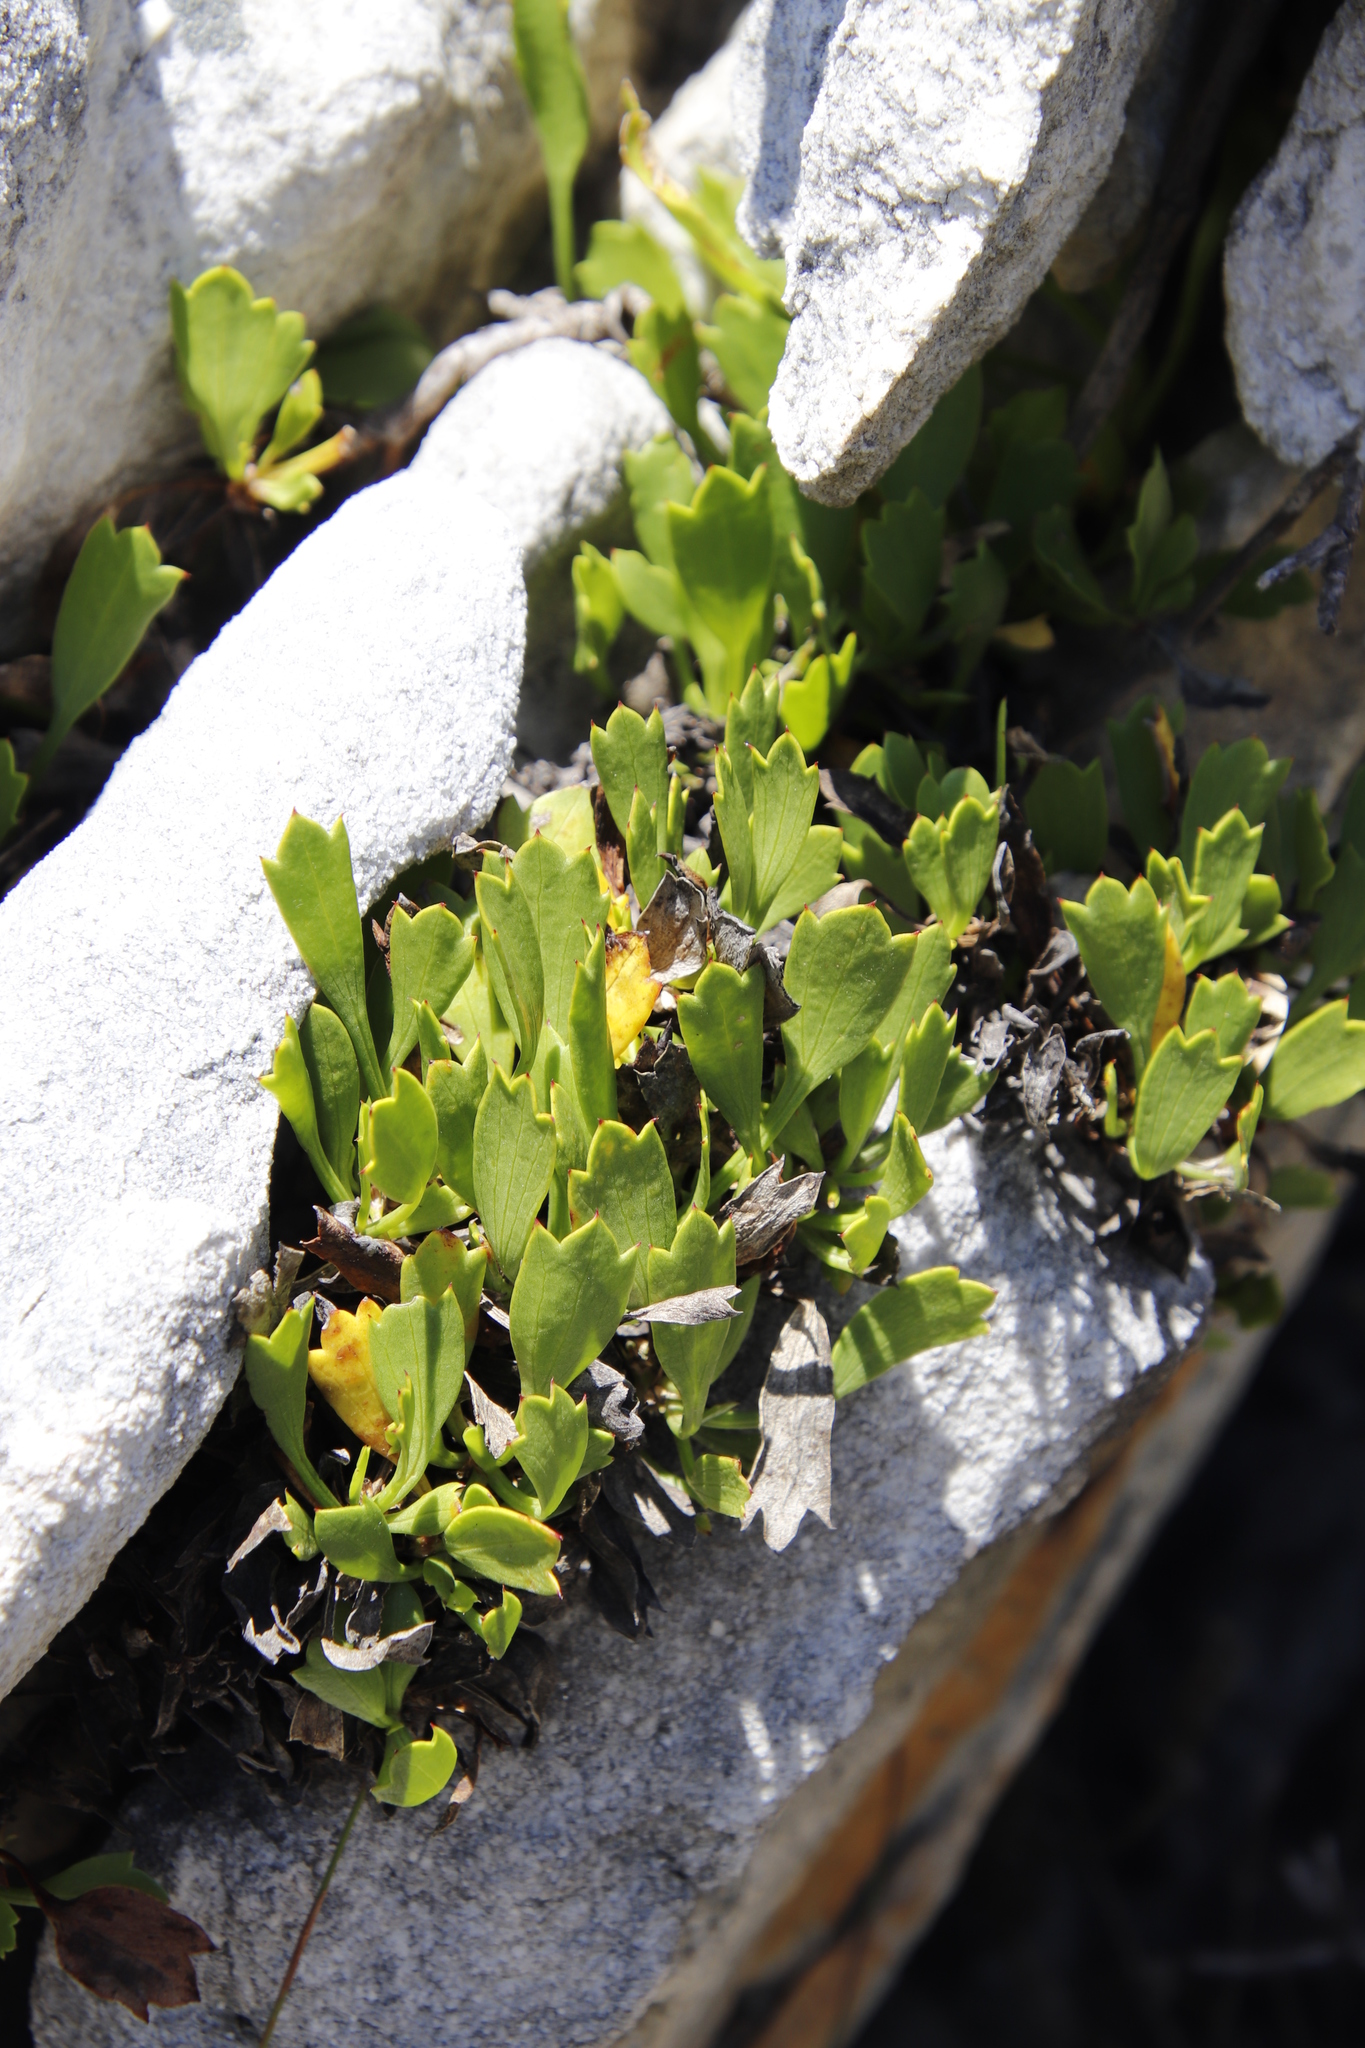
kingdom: Plantae
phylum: Tracheophyta
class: Magnoliopsida
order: Apiales
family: Apiaceae
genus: Centella
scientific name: Centella triloba
